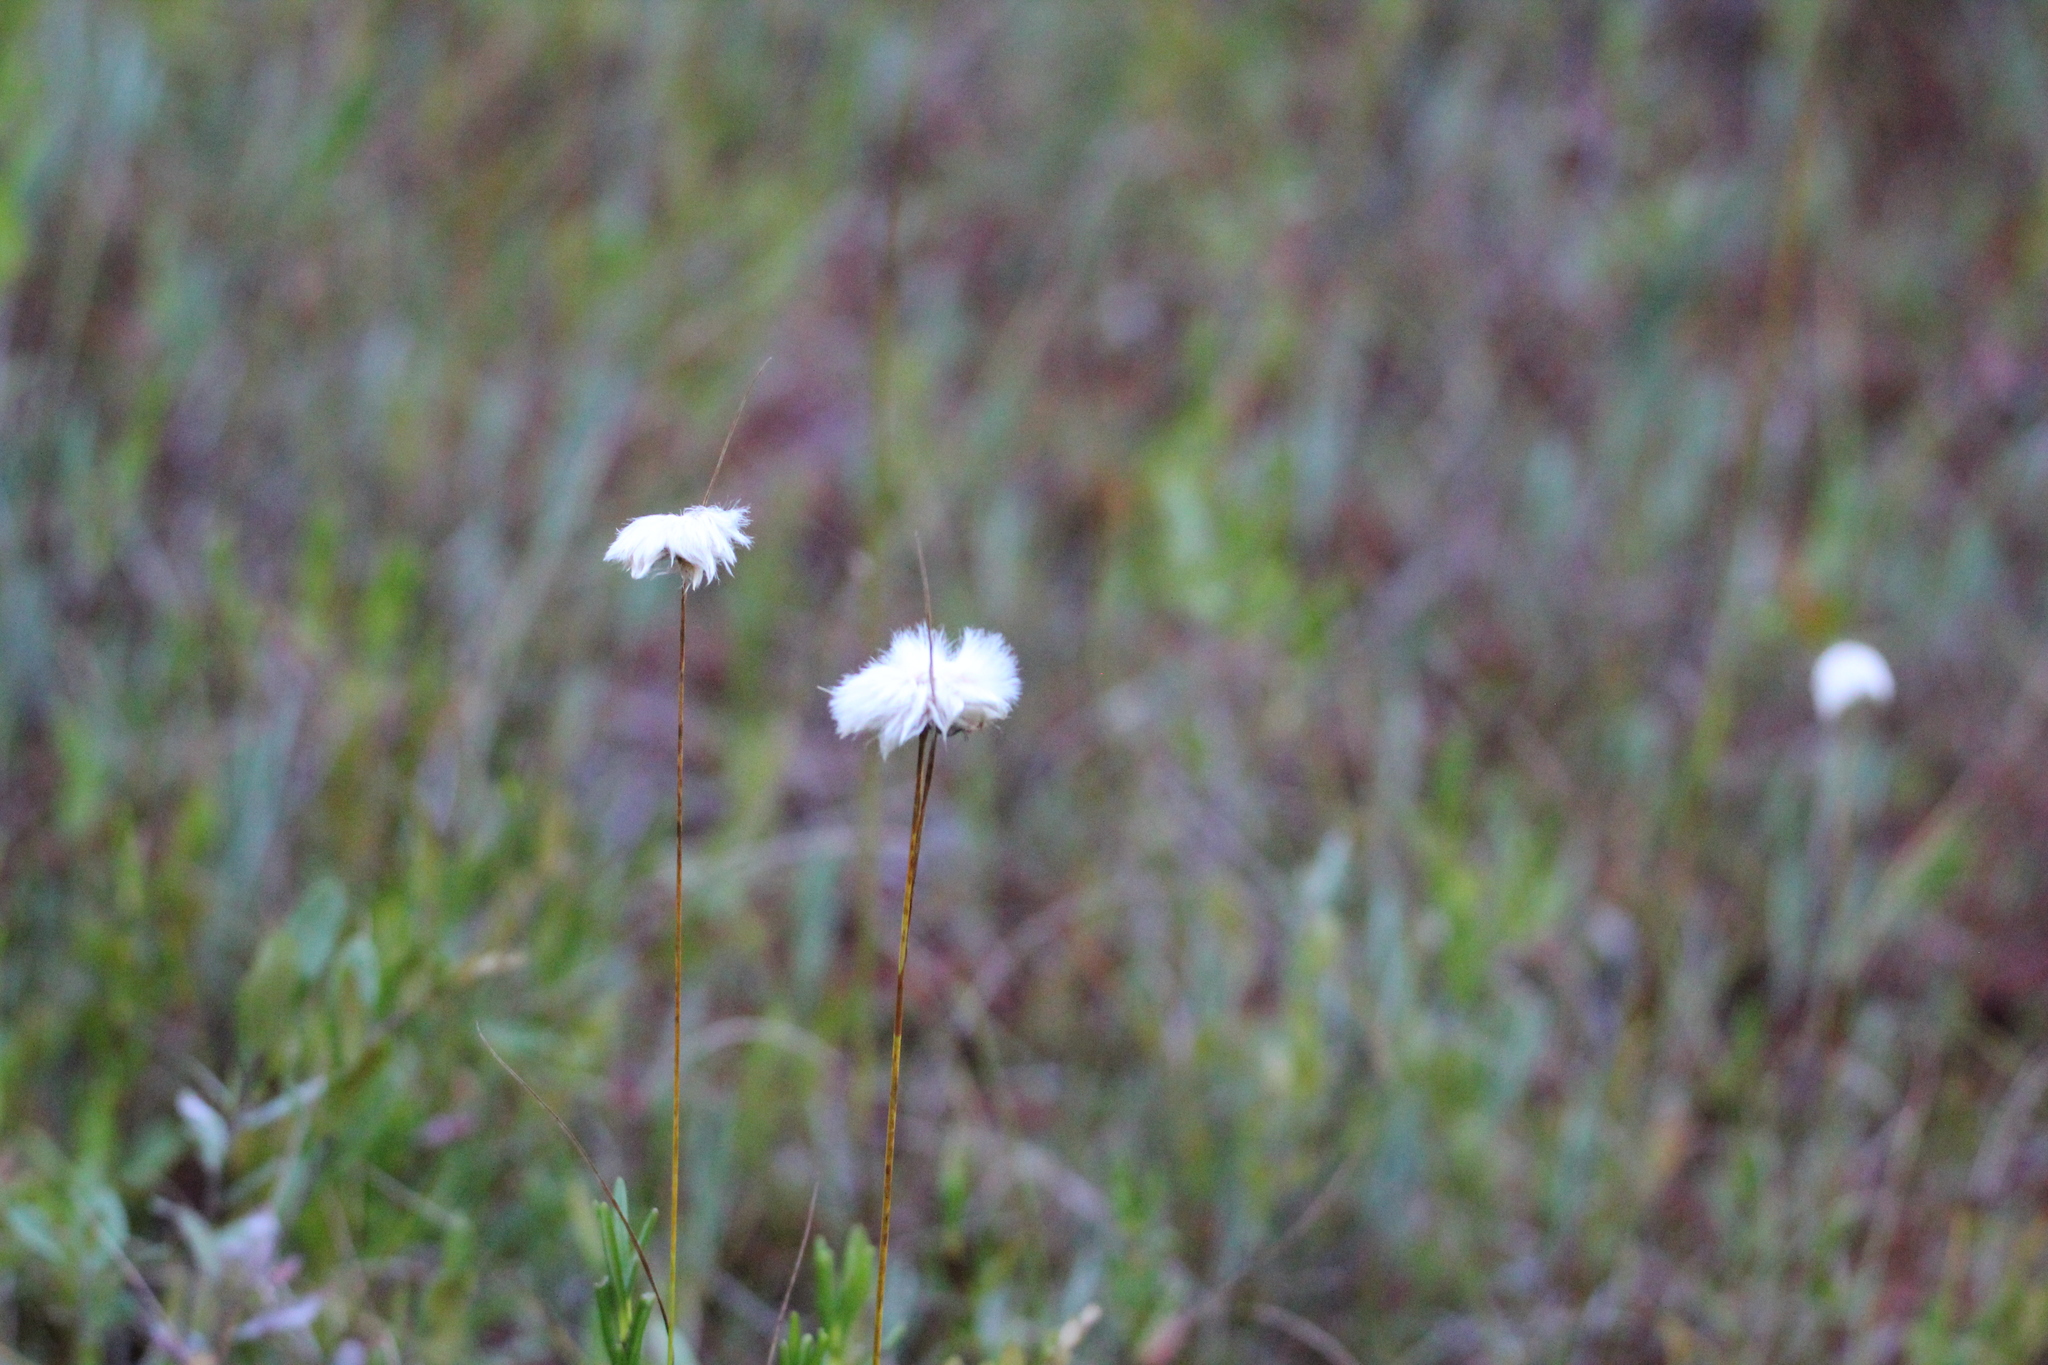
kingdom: Plantae
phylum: Tracheophyta
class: Liliopsida
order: Poales
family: Cyperaceae
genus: Eriophorum
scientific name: Eriophorum virginicum
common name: Tawny cottongrass
